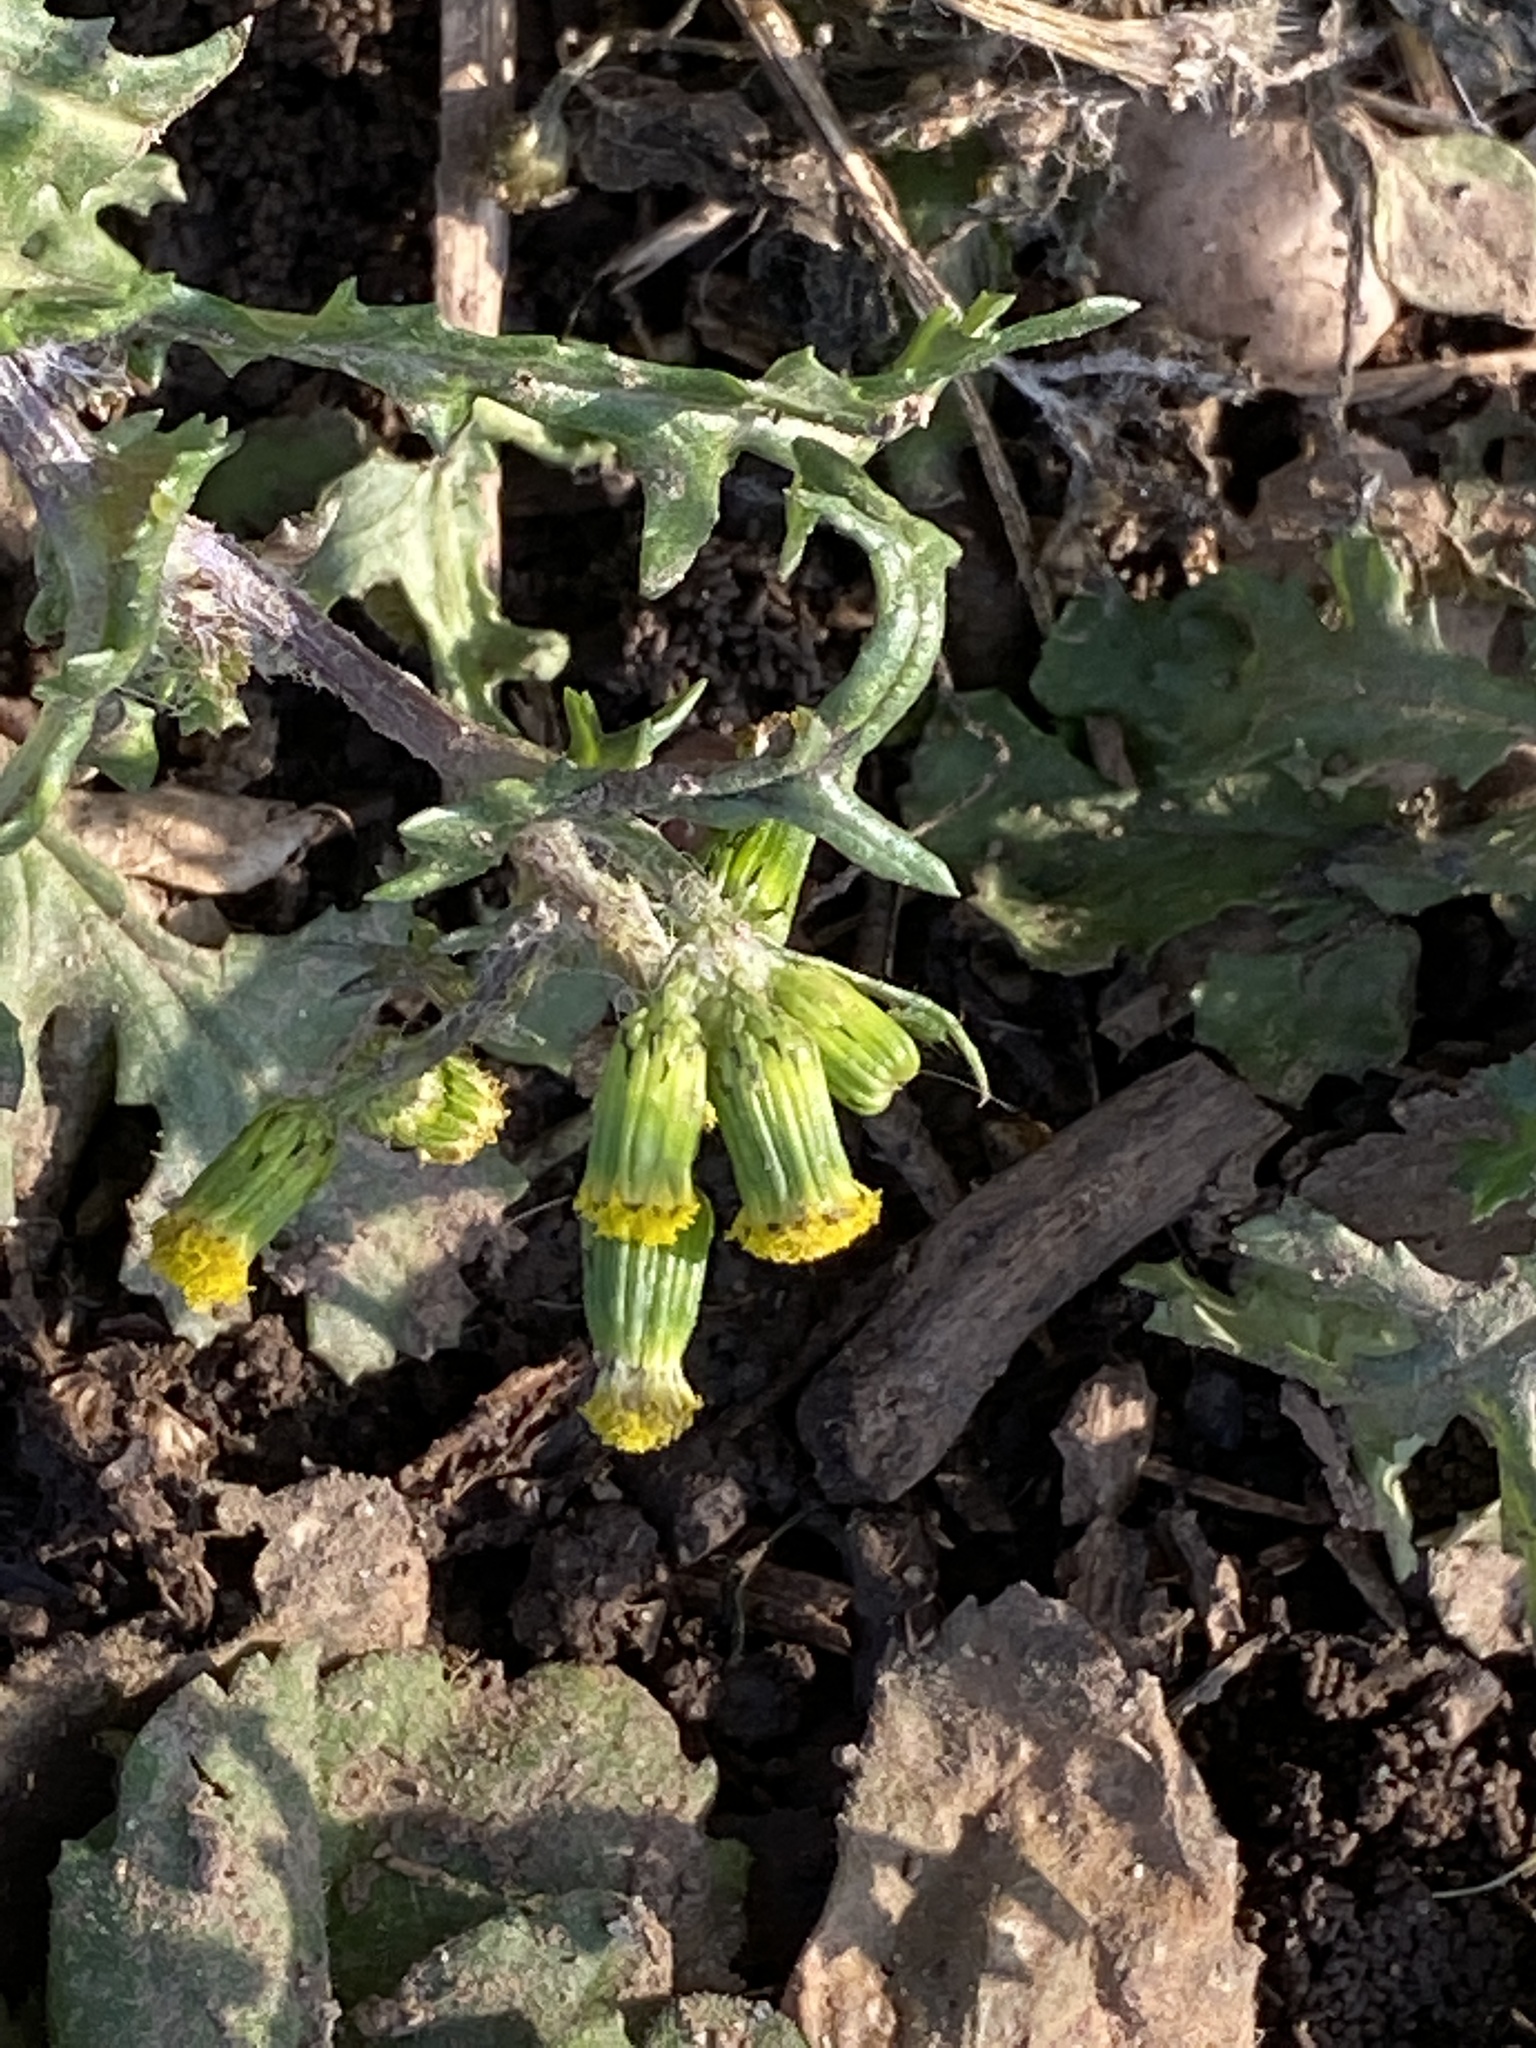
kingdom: Plantae
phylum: Tracheophyta
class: Magnoliopsida
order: Asterales
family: Asteraceae
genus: Senecio
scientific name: Senecio vulgaris
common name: Old-man-in-the-spring
